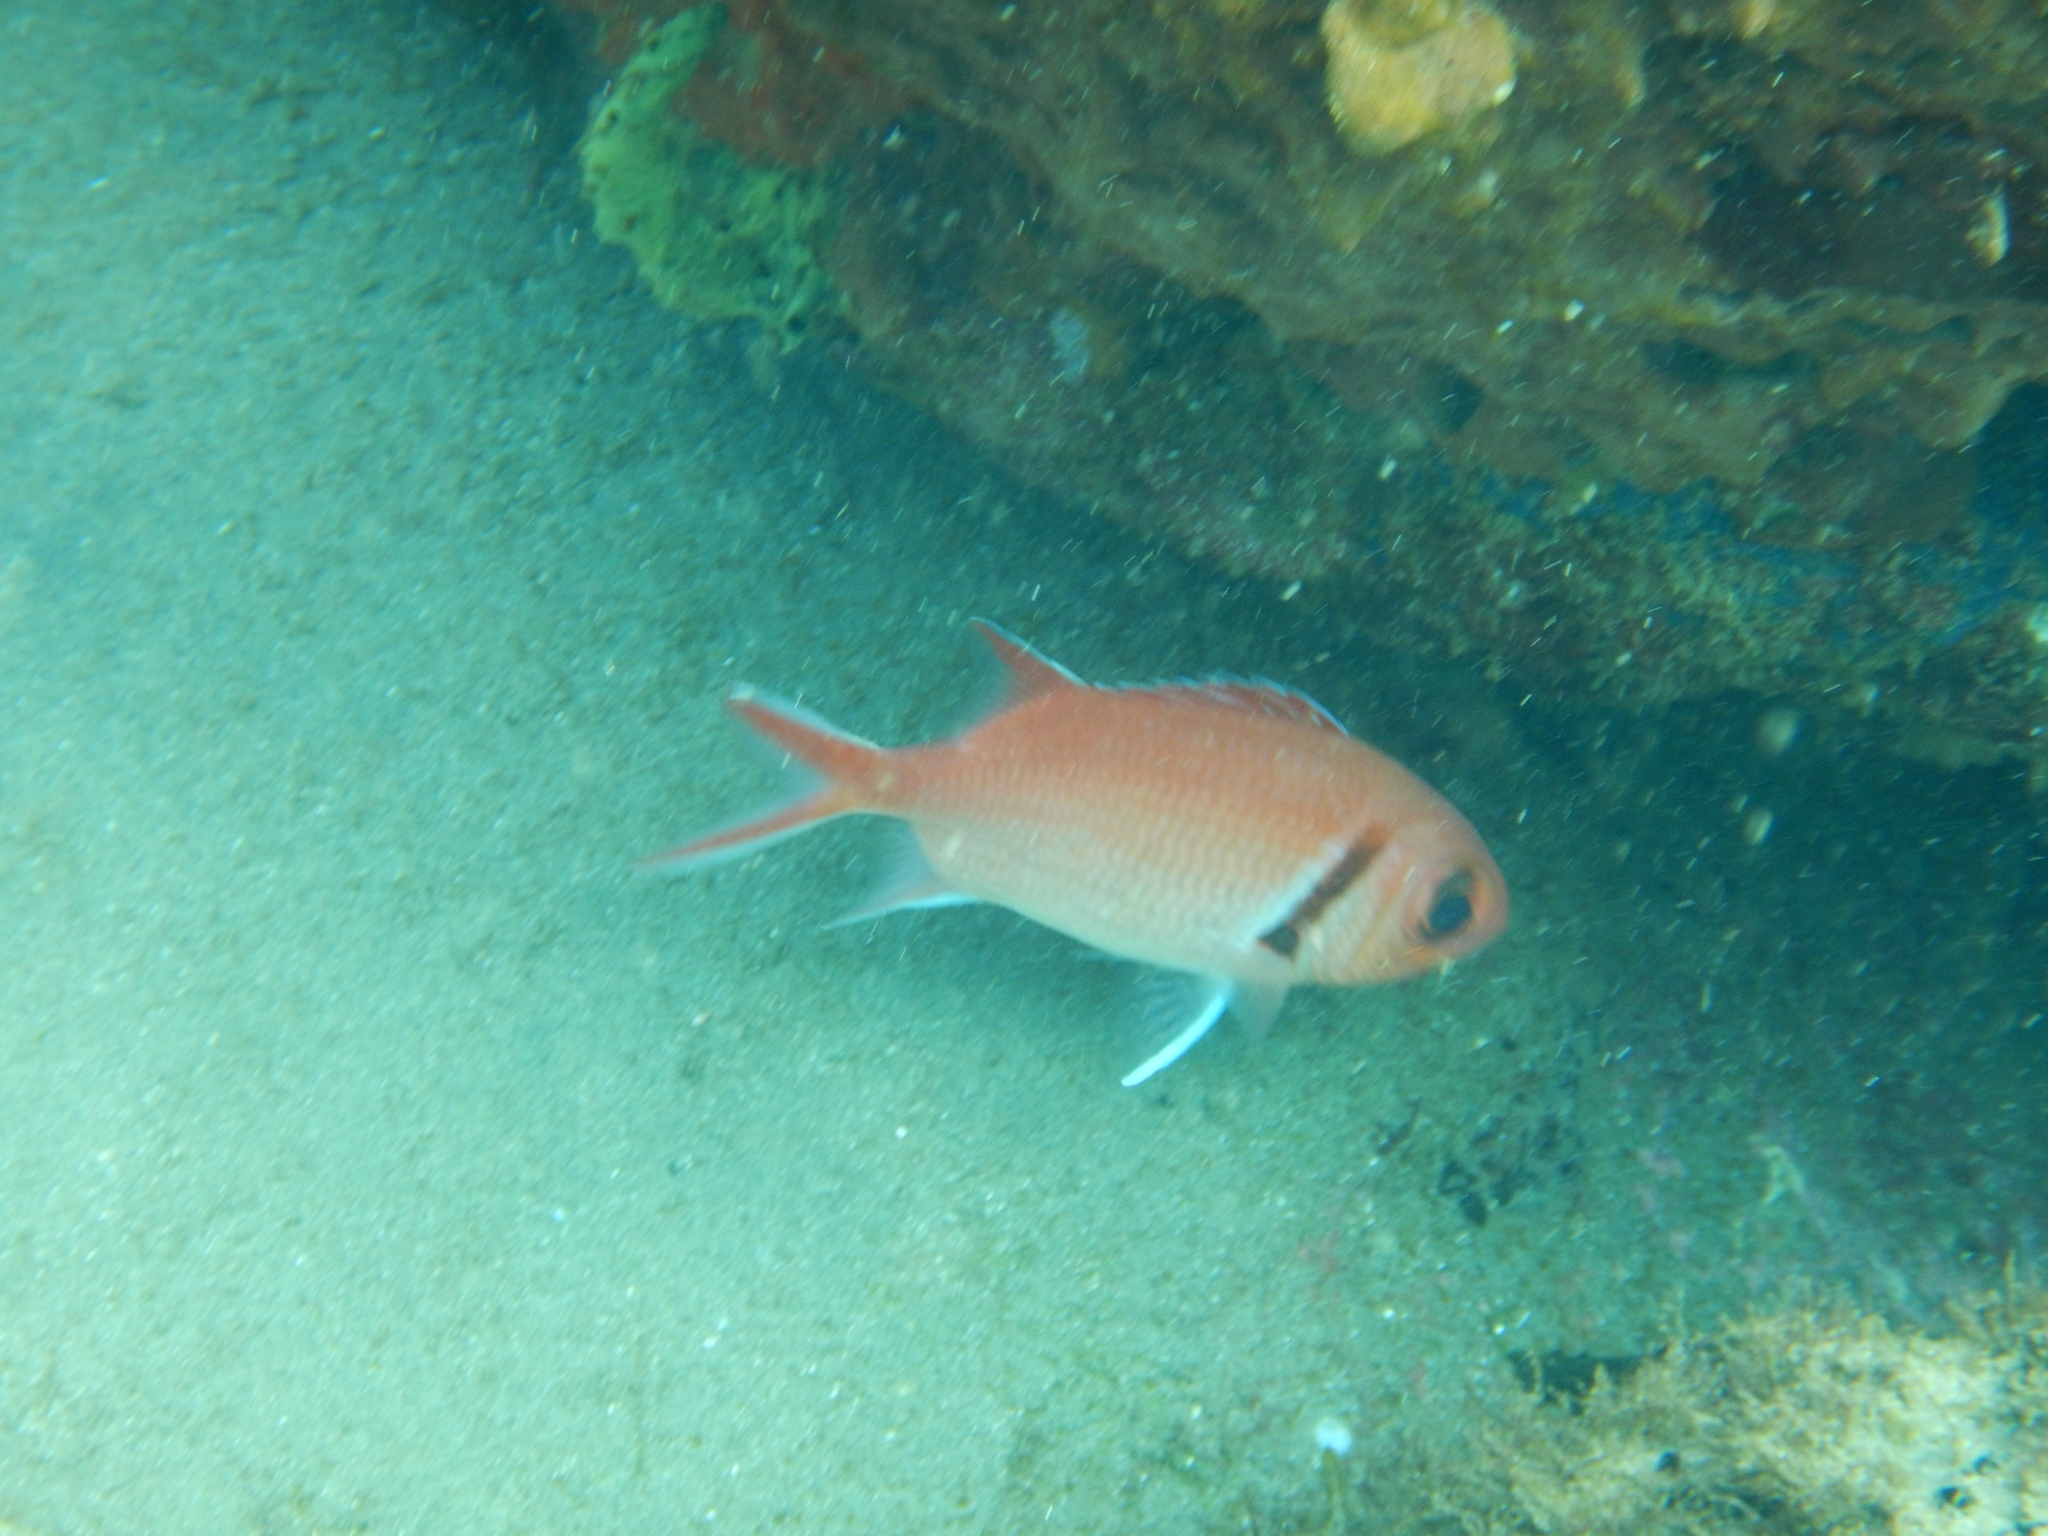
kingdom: Animalia
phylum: Chordata
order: Beryciformes
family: Holocentridae
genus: Myripristis
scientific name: Myripristis jacobus
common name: Blackbar soldierfish
